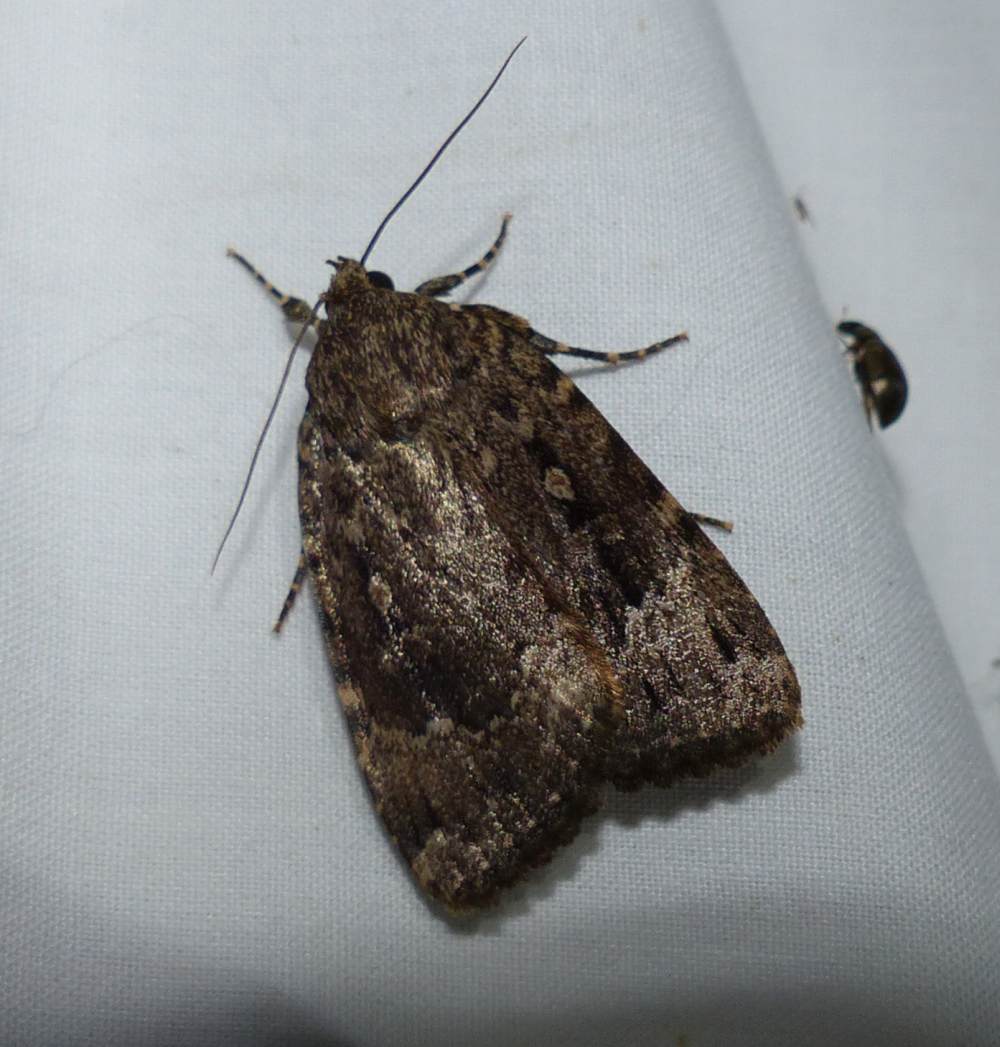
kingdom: Animalia
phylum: Arthropoda
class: Insecta
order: Lepidoptera
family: Noctuidae
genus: Amphipyra
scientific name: Amphipyra pyramidoides
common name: American copper underwing
